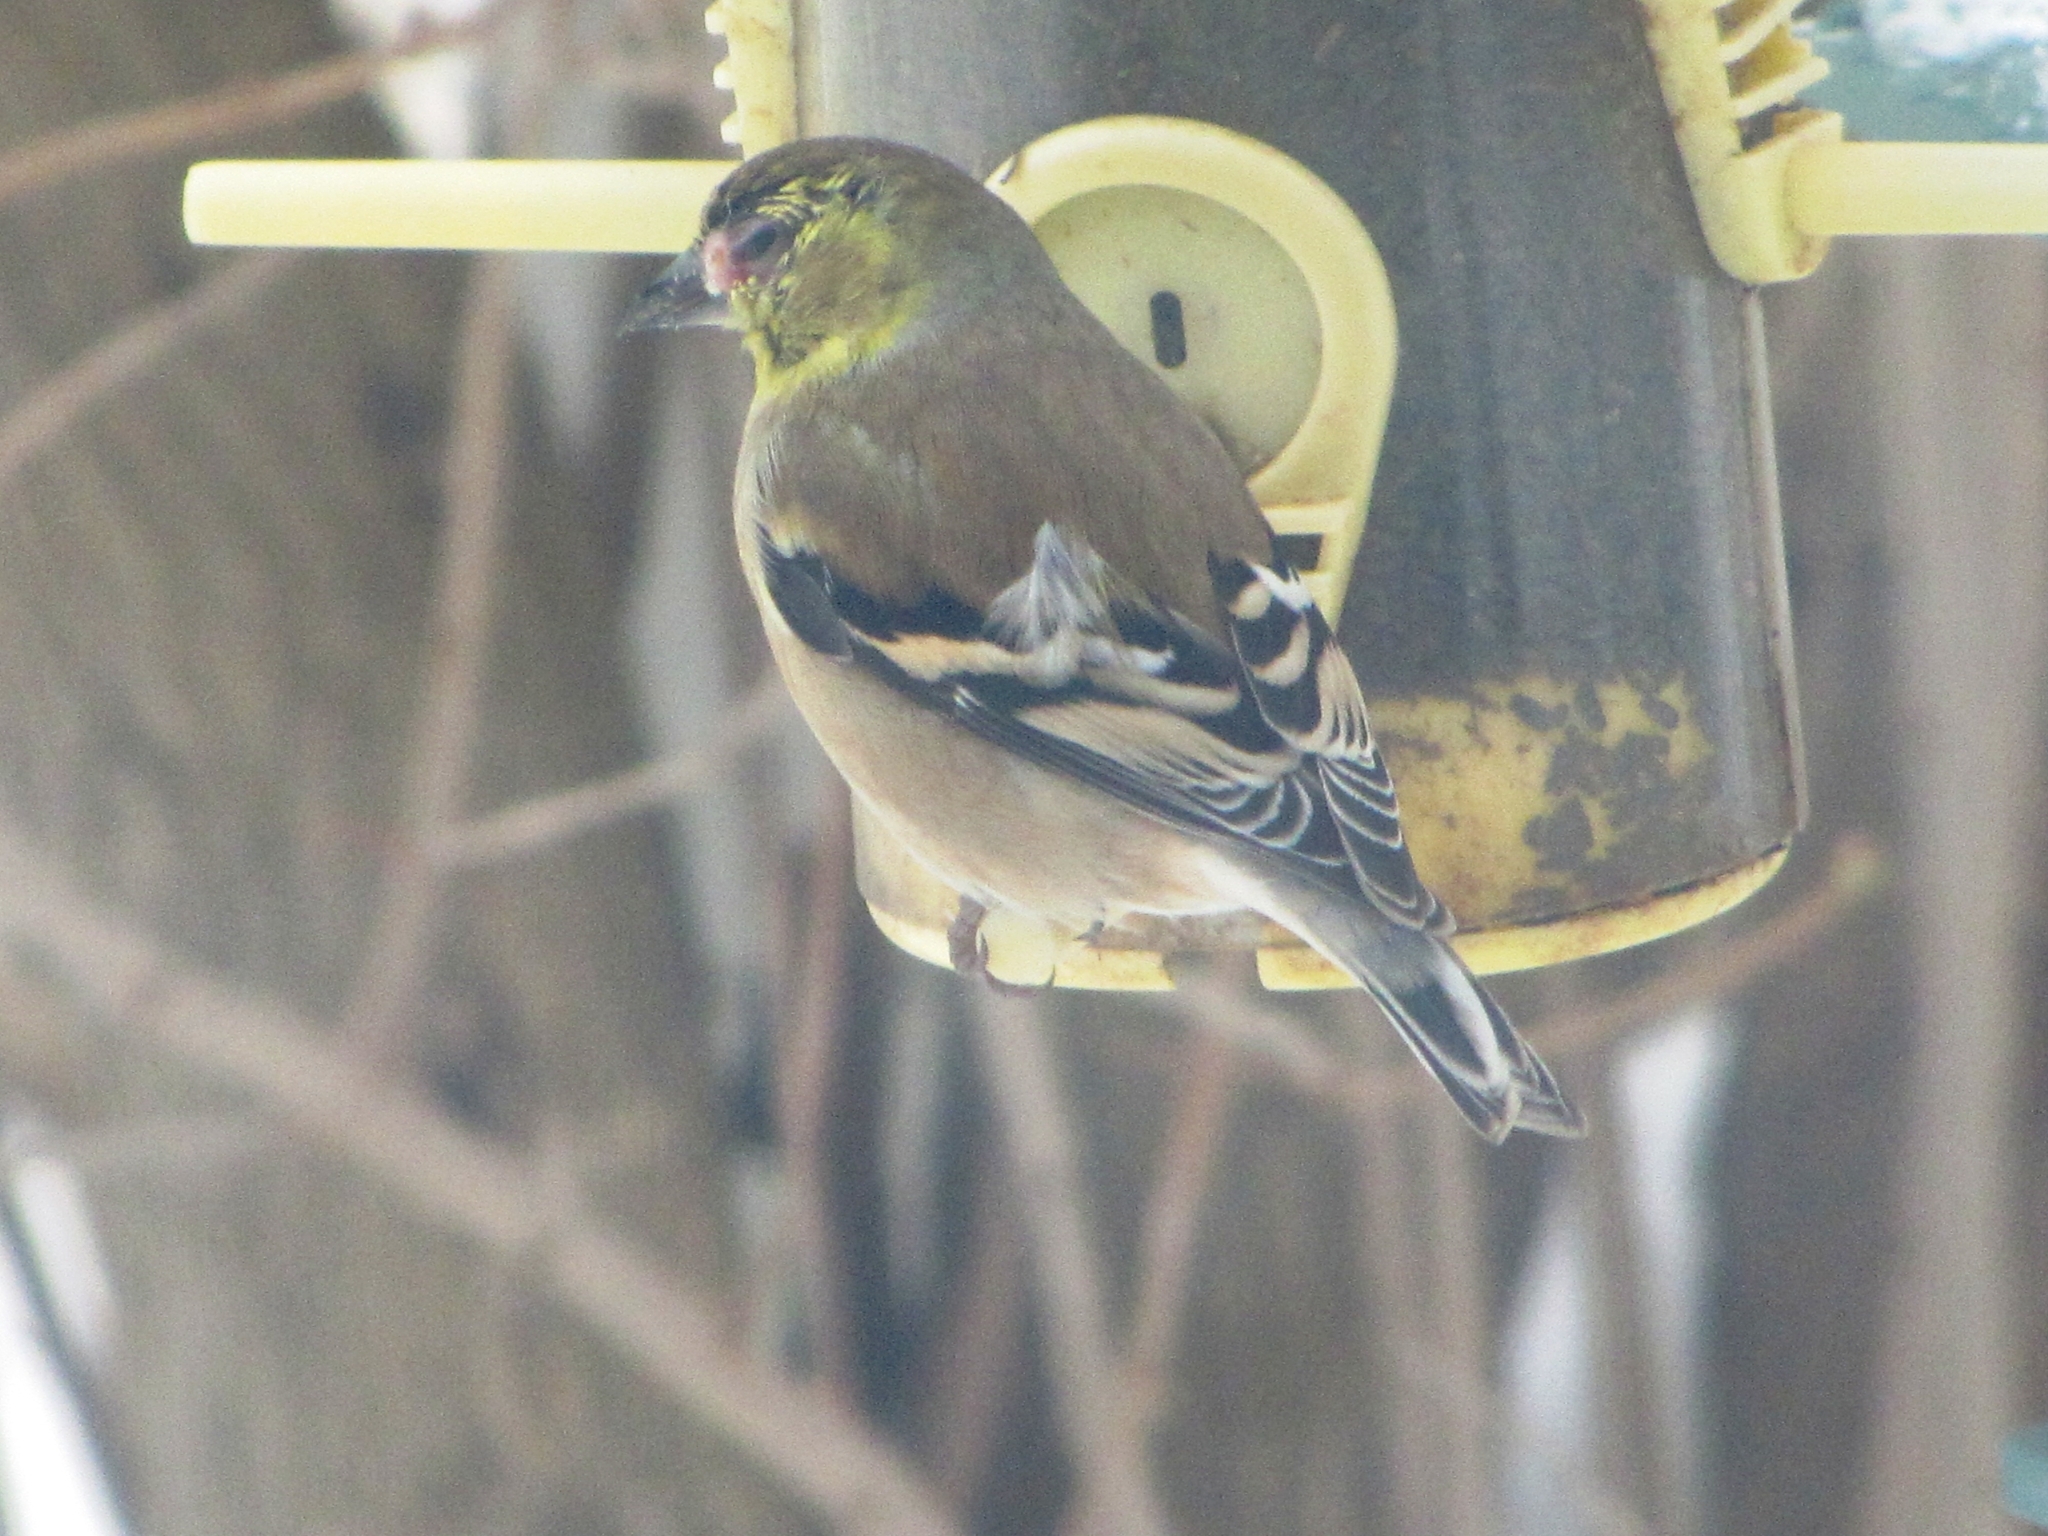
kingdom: Animalia
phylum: Chordata
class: Aves
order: Passeriformes
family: Fringillidae
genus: Spinus
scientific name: Spinus tristis
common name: American goldfinch
